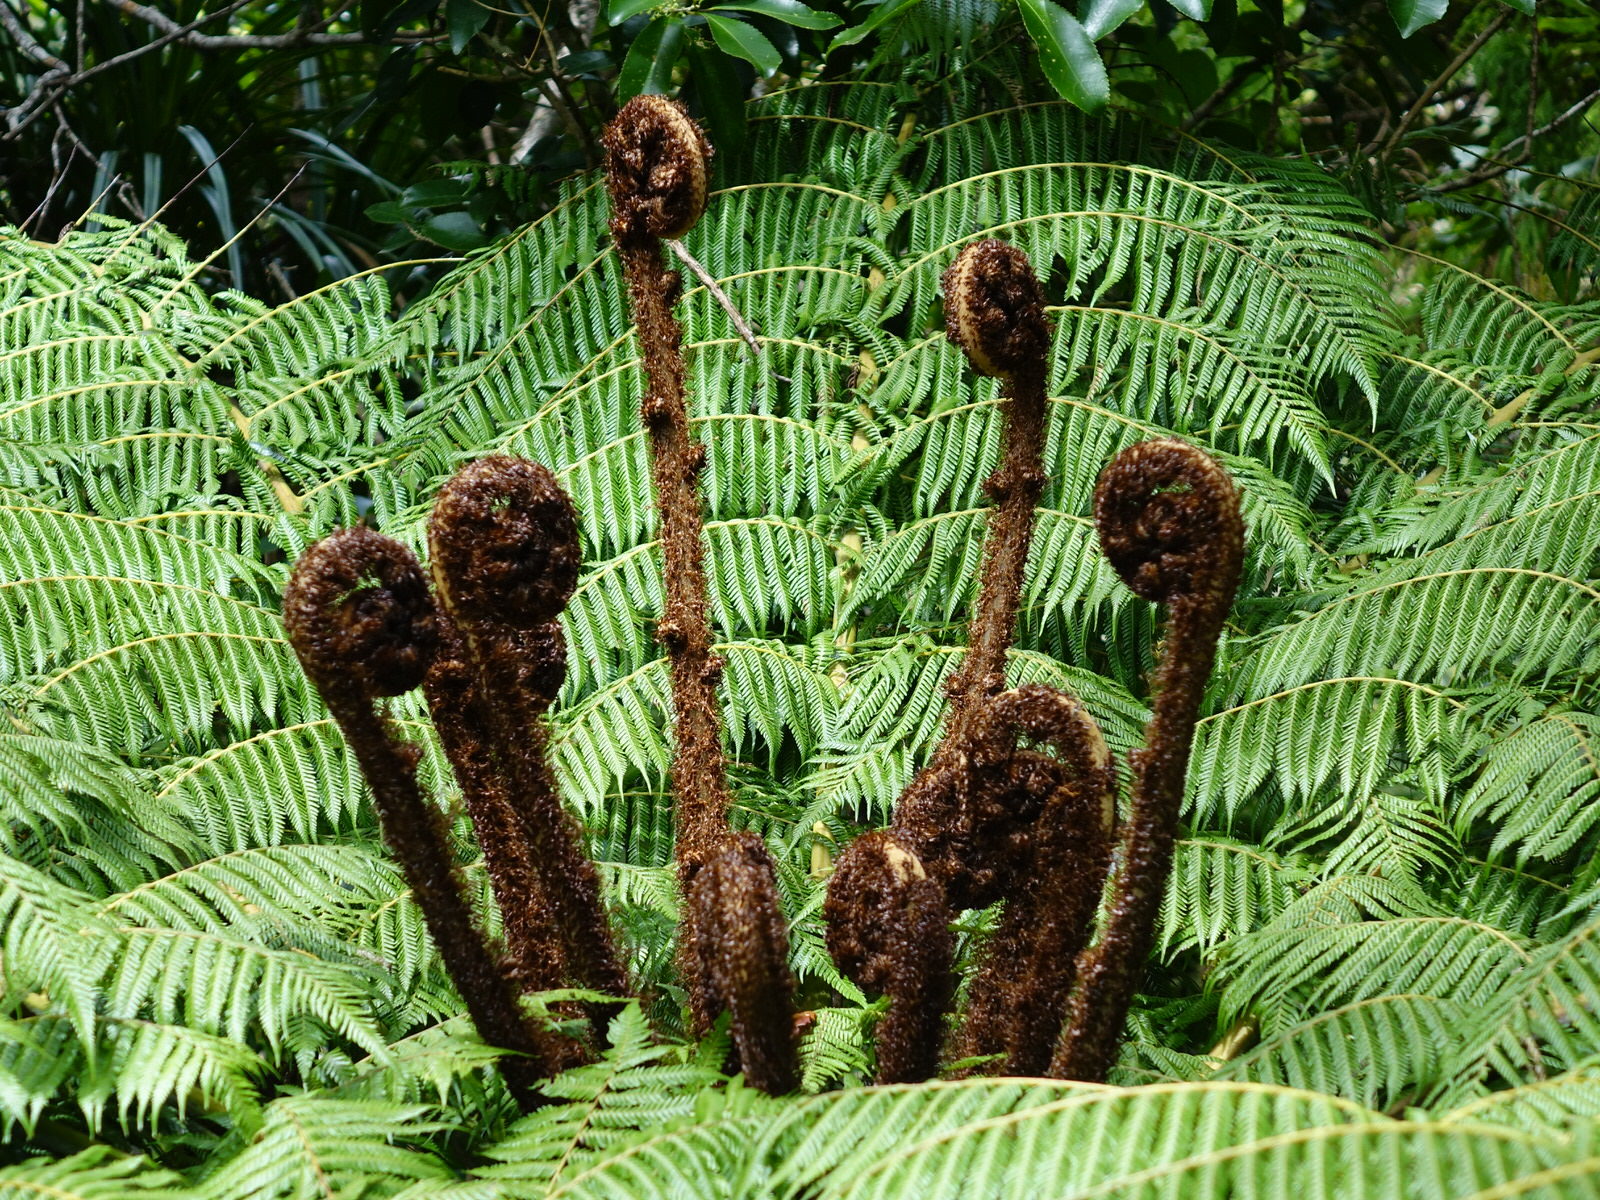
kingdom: Plantae
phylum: Tracheophyta
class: Polypodiopsida
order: Cyatheales
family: Cyatheaceae
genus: Alsophila
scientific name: Alsophila dealbata
